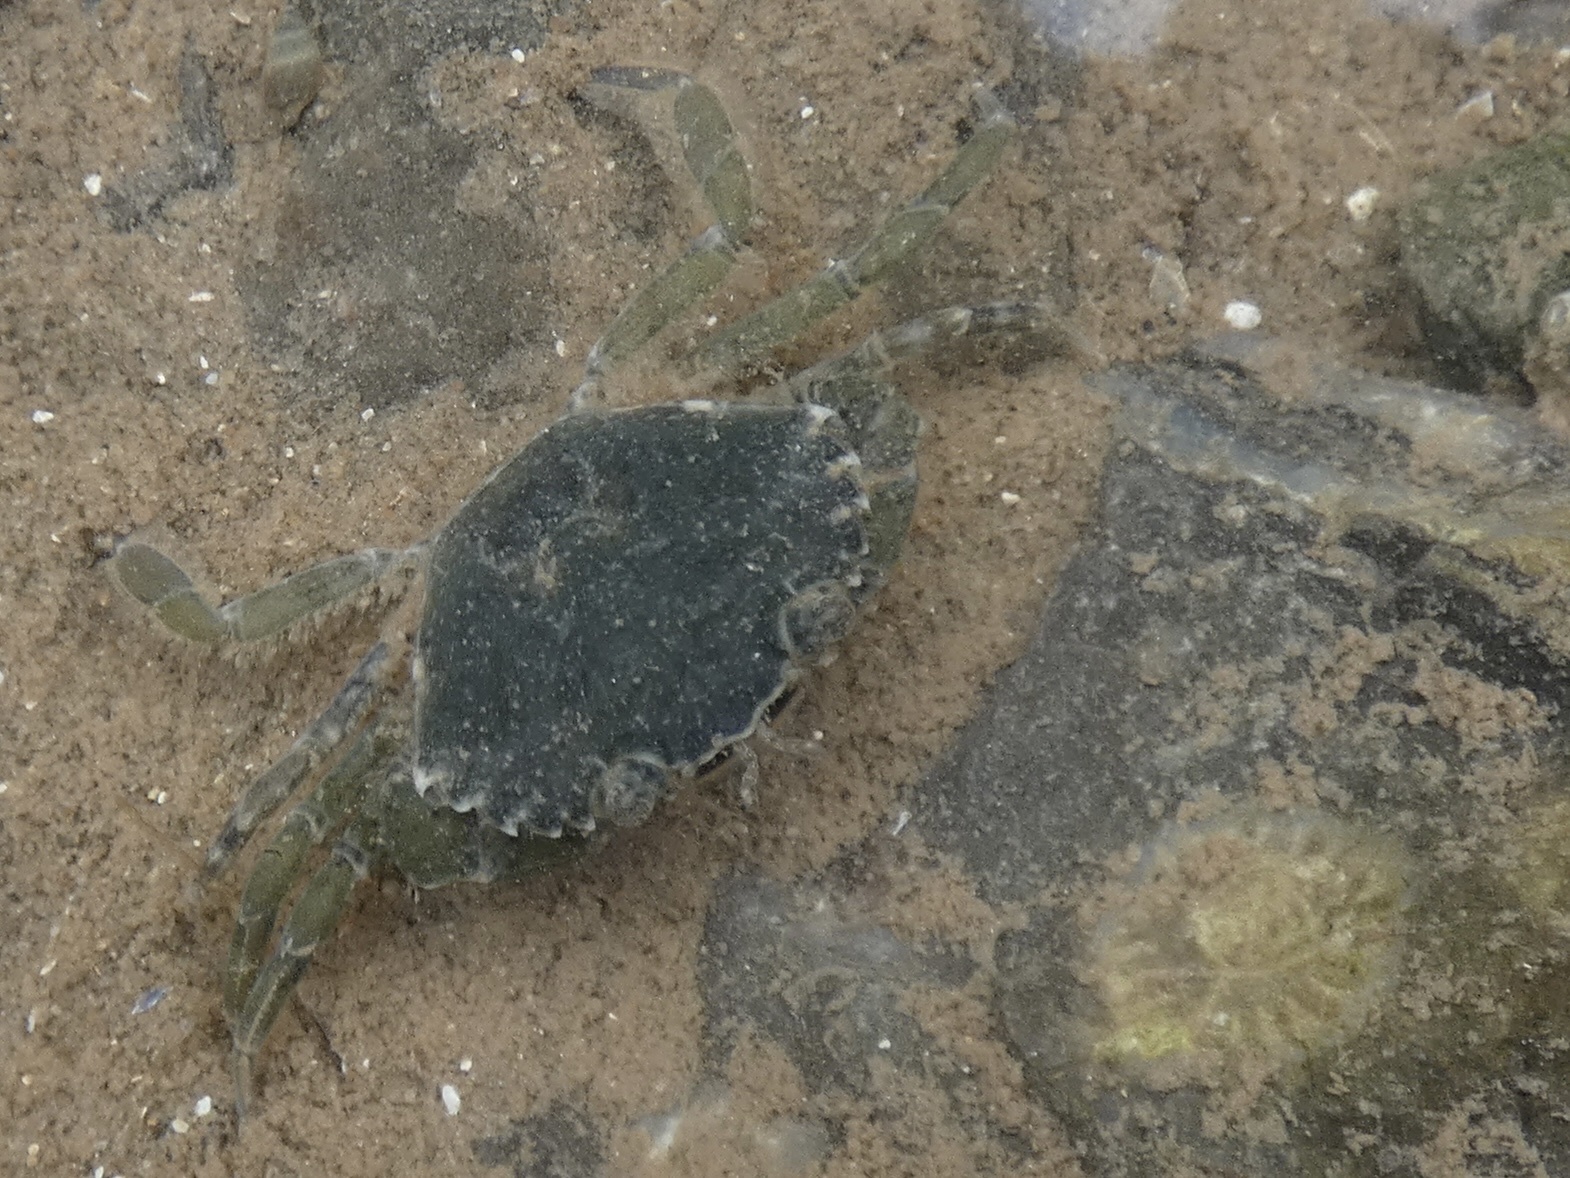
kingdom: Animalia
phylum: Arthropoda
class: Malacostraca
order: Decapoda
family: Carcinidae
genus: Carcinus
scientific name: Carcinus maenas
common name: European green crab
